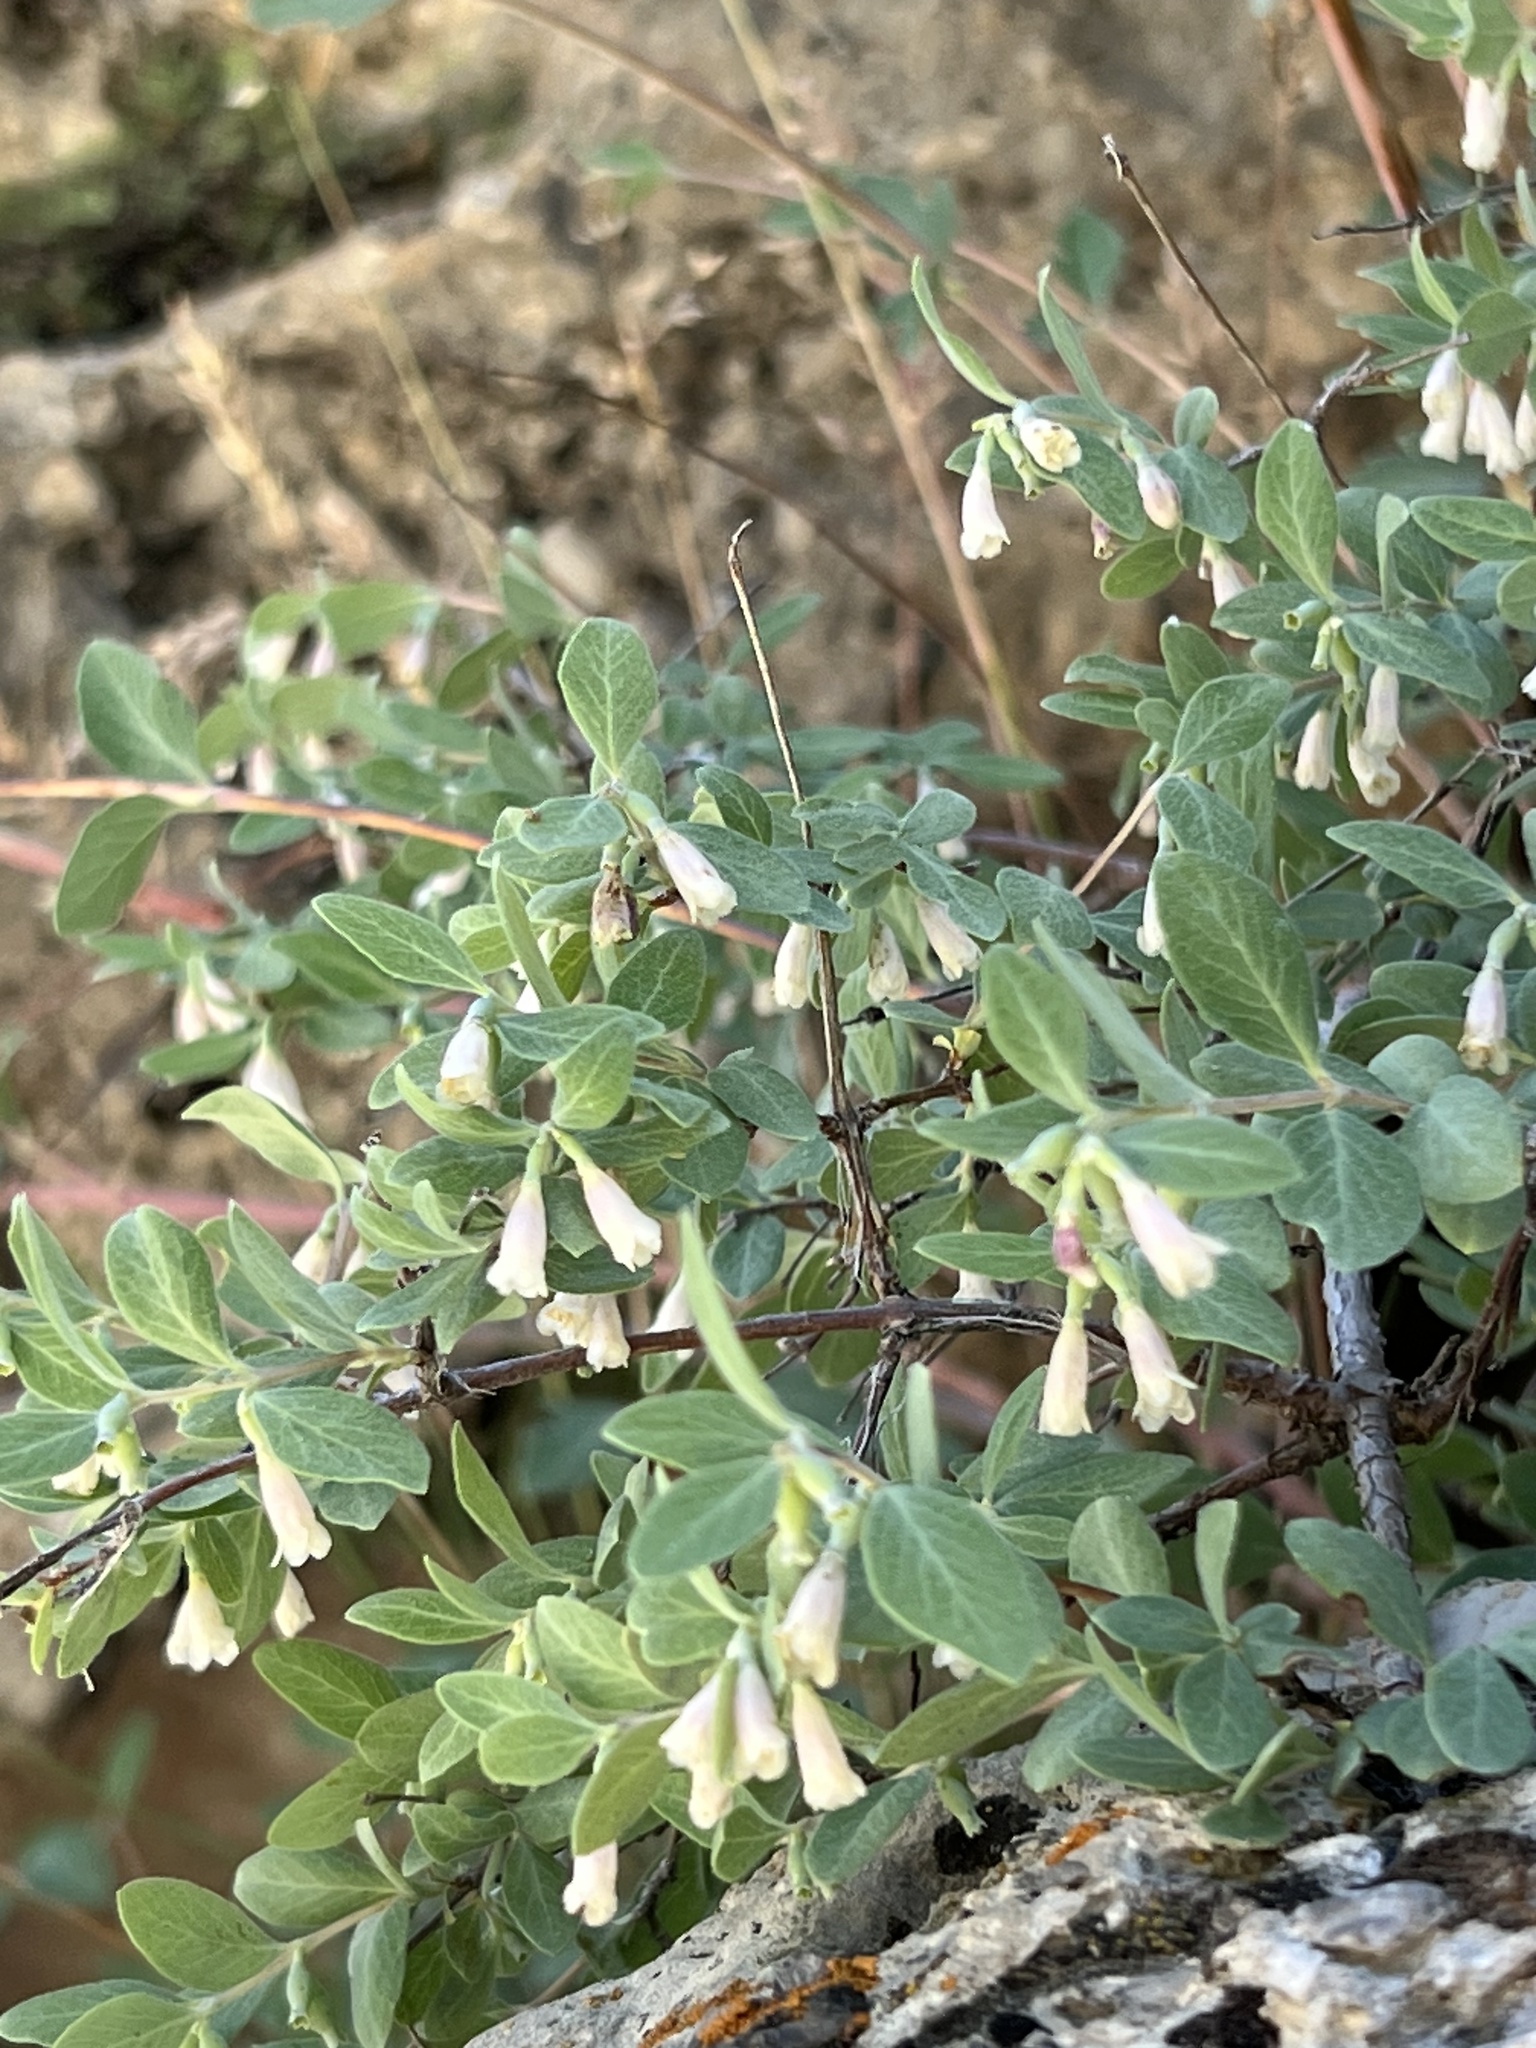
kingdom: Plantae
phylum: Tracheophyta
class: Magnoliopsida
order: Dipsacales
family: Caprifoliaceae
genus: Symphoricarpos
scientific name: Symphoricarpos rotundifolius
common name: Round-leaved snowberry
